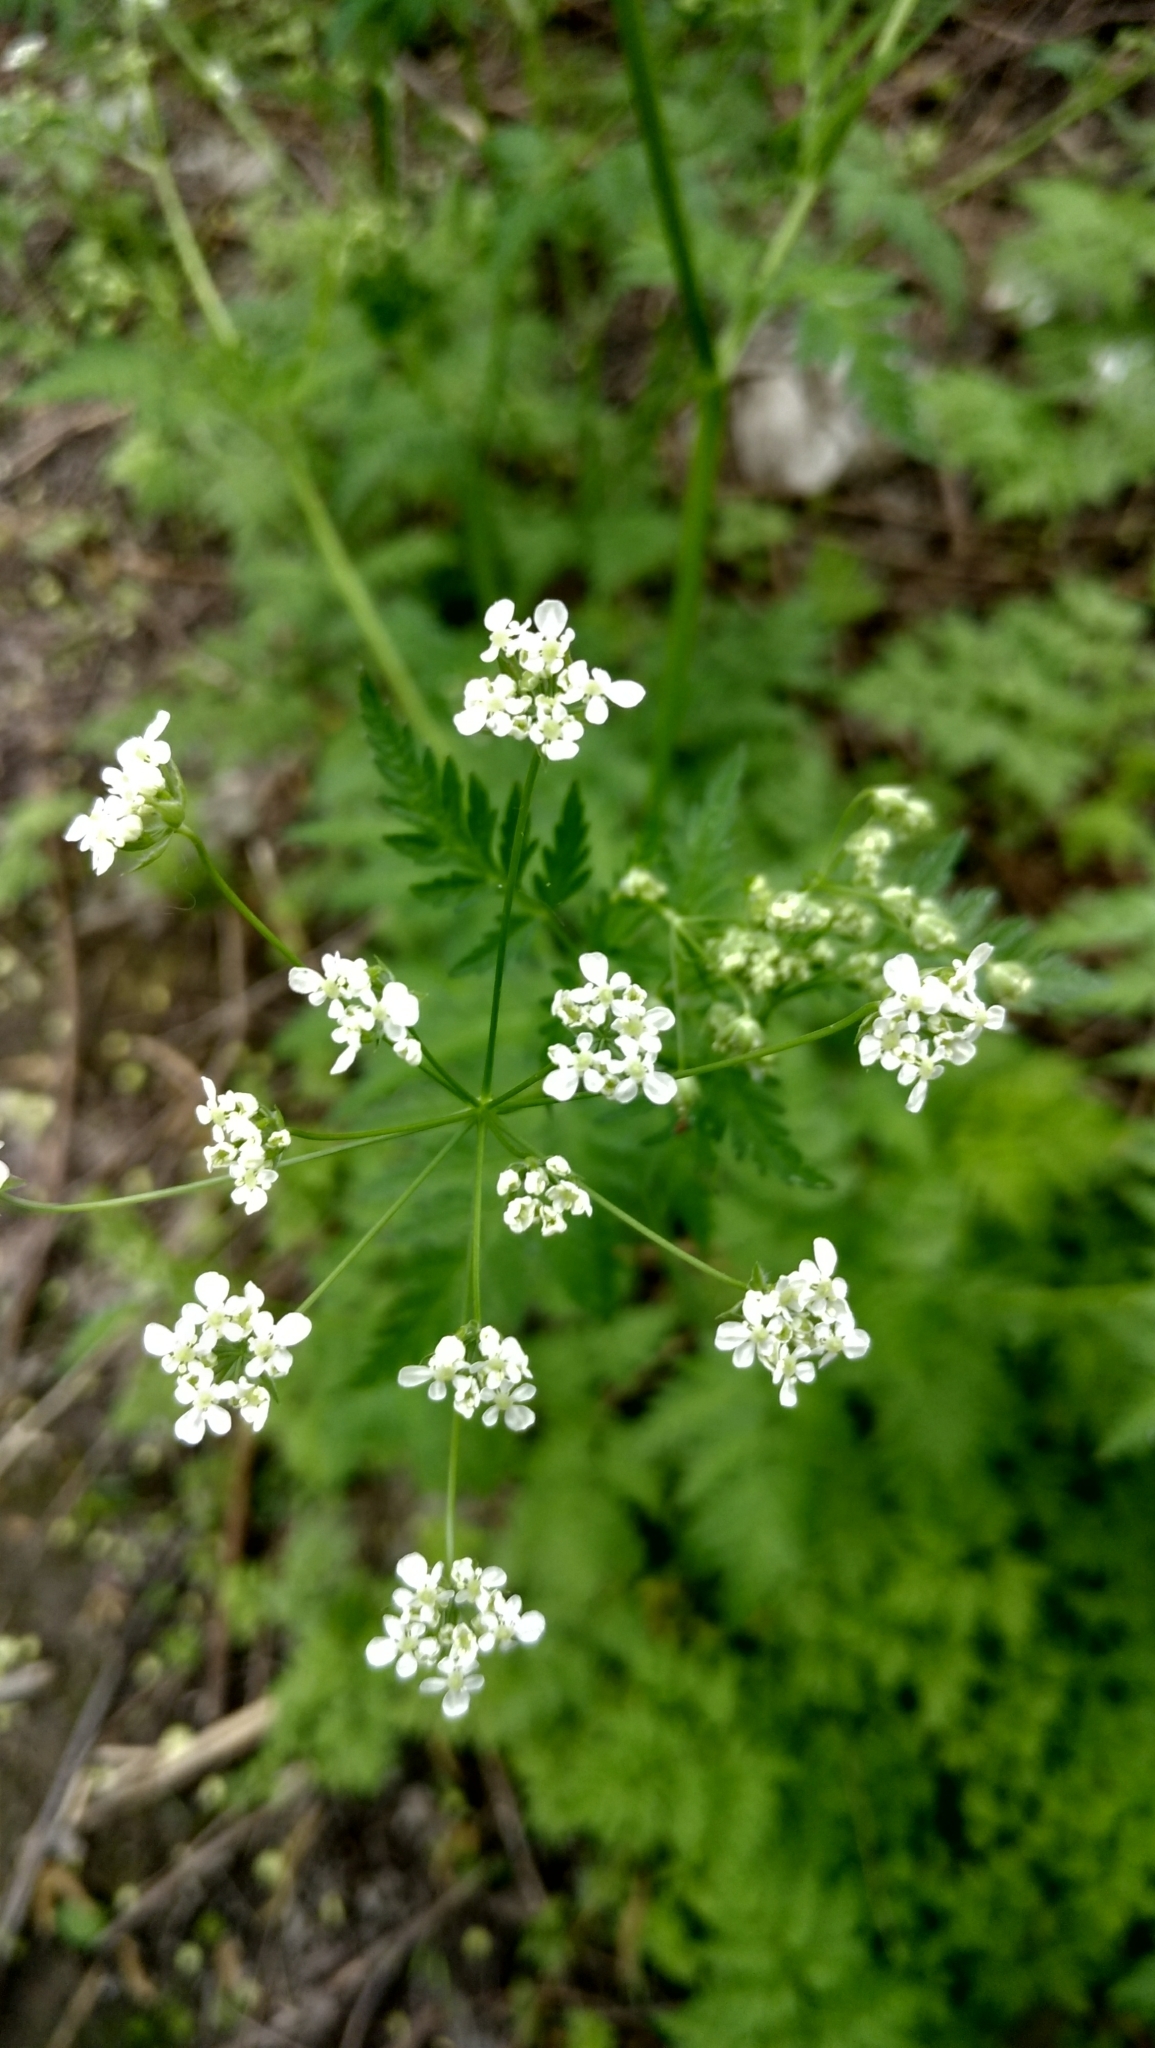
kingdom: Plantae
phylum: Tracheophyta
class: Magnoliopsida
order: Apiales
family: Apiaceae
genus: Anthriscus
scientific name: Anthriscus sylvestris
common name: Cow parsley
